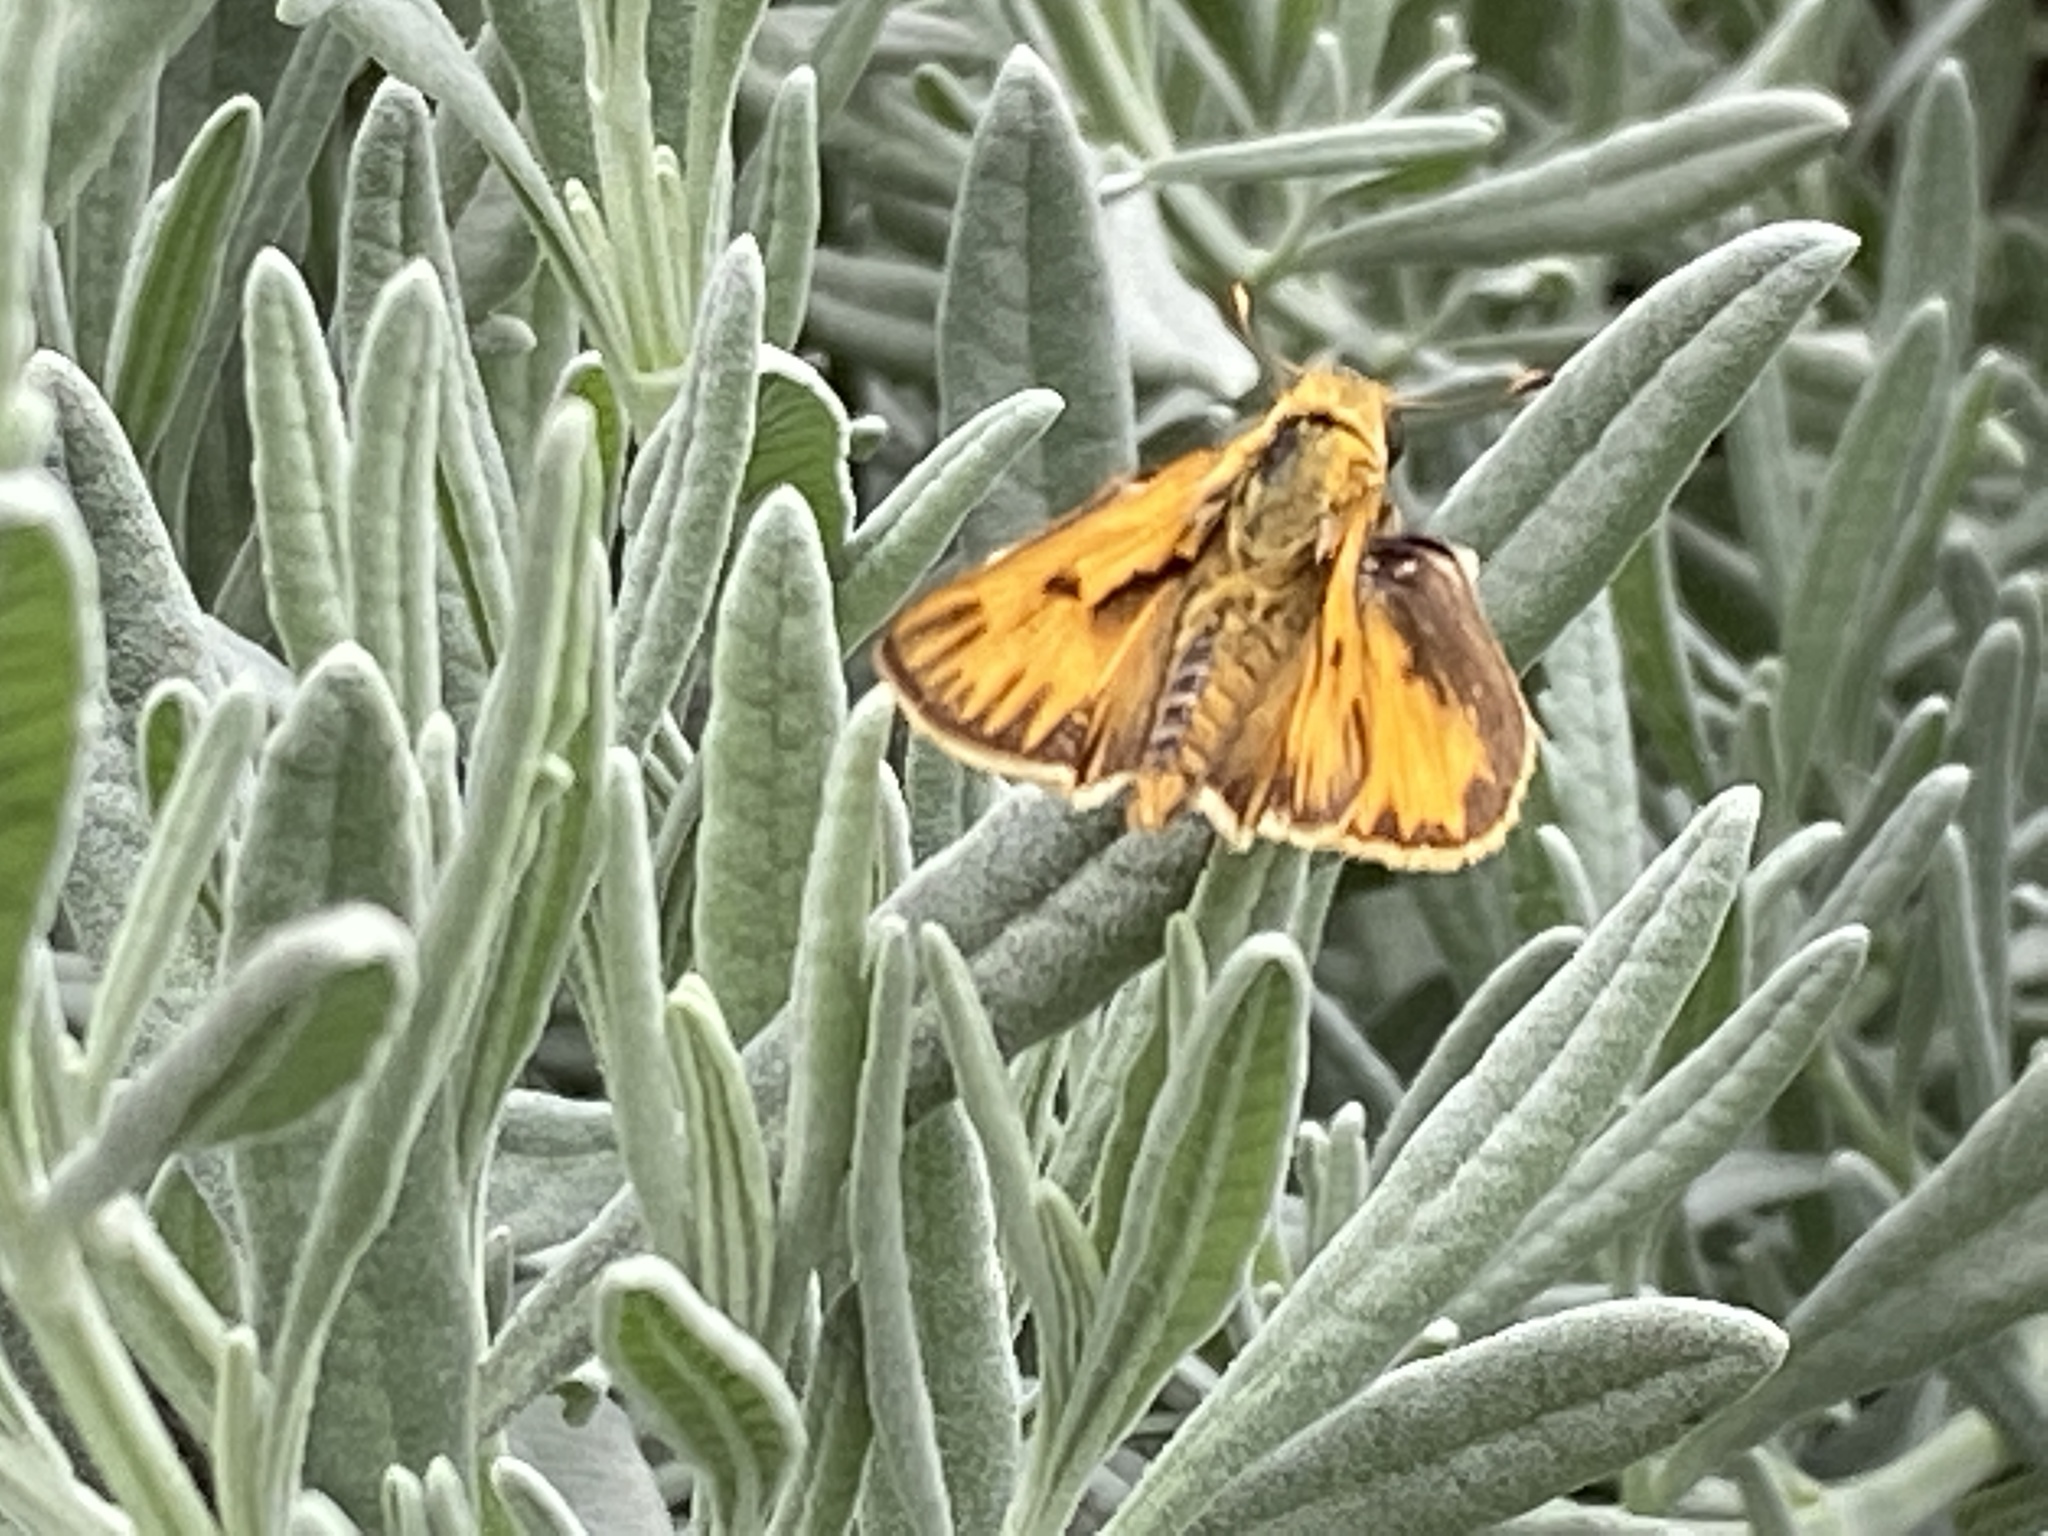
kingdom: Animalia
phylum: Arthropoda
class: Insecta
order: Lepidoptera
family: Hesperiidae
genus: Hylephila
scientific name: Hylephila phyleus
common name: Fiery skipper
